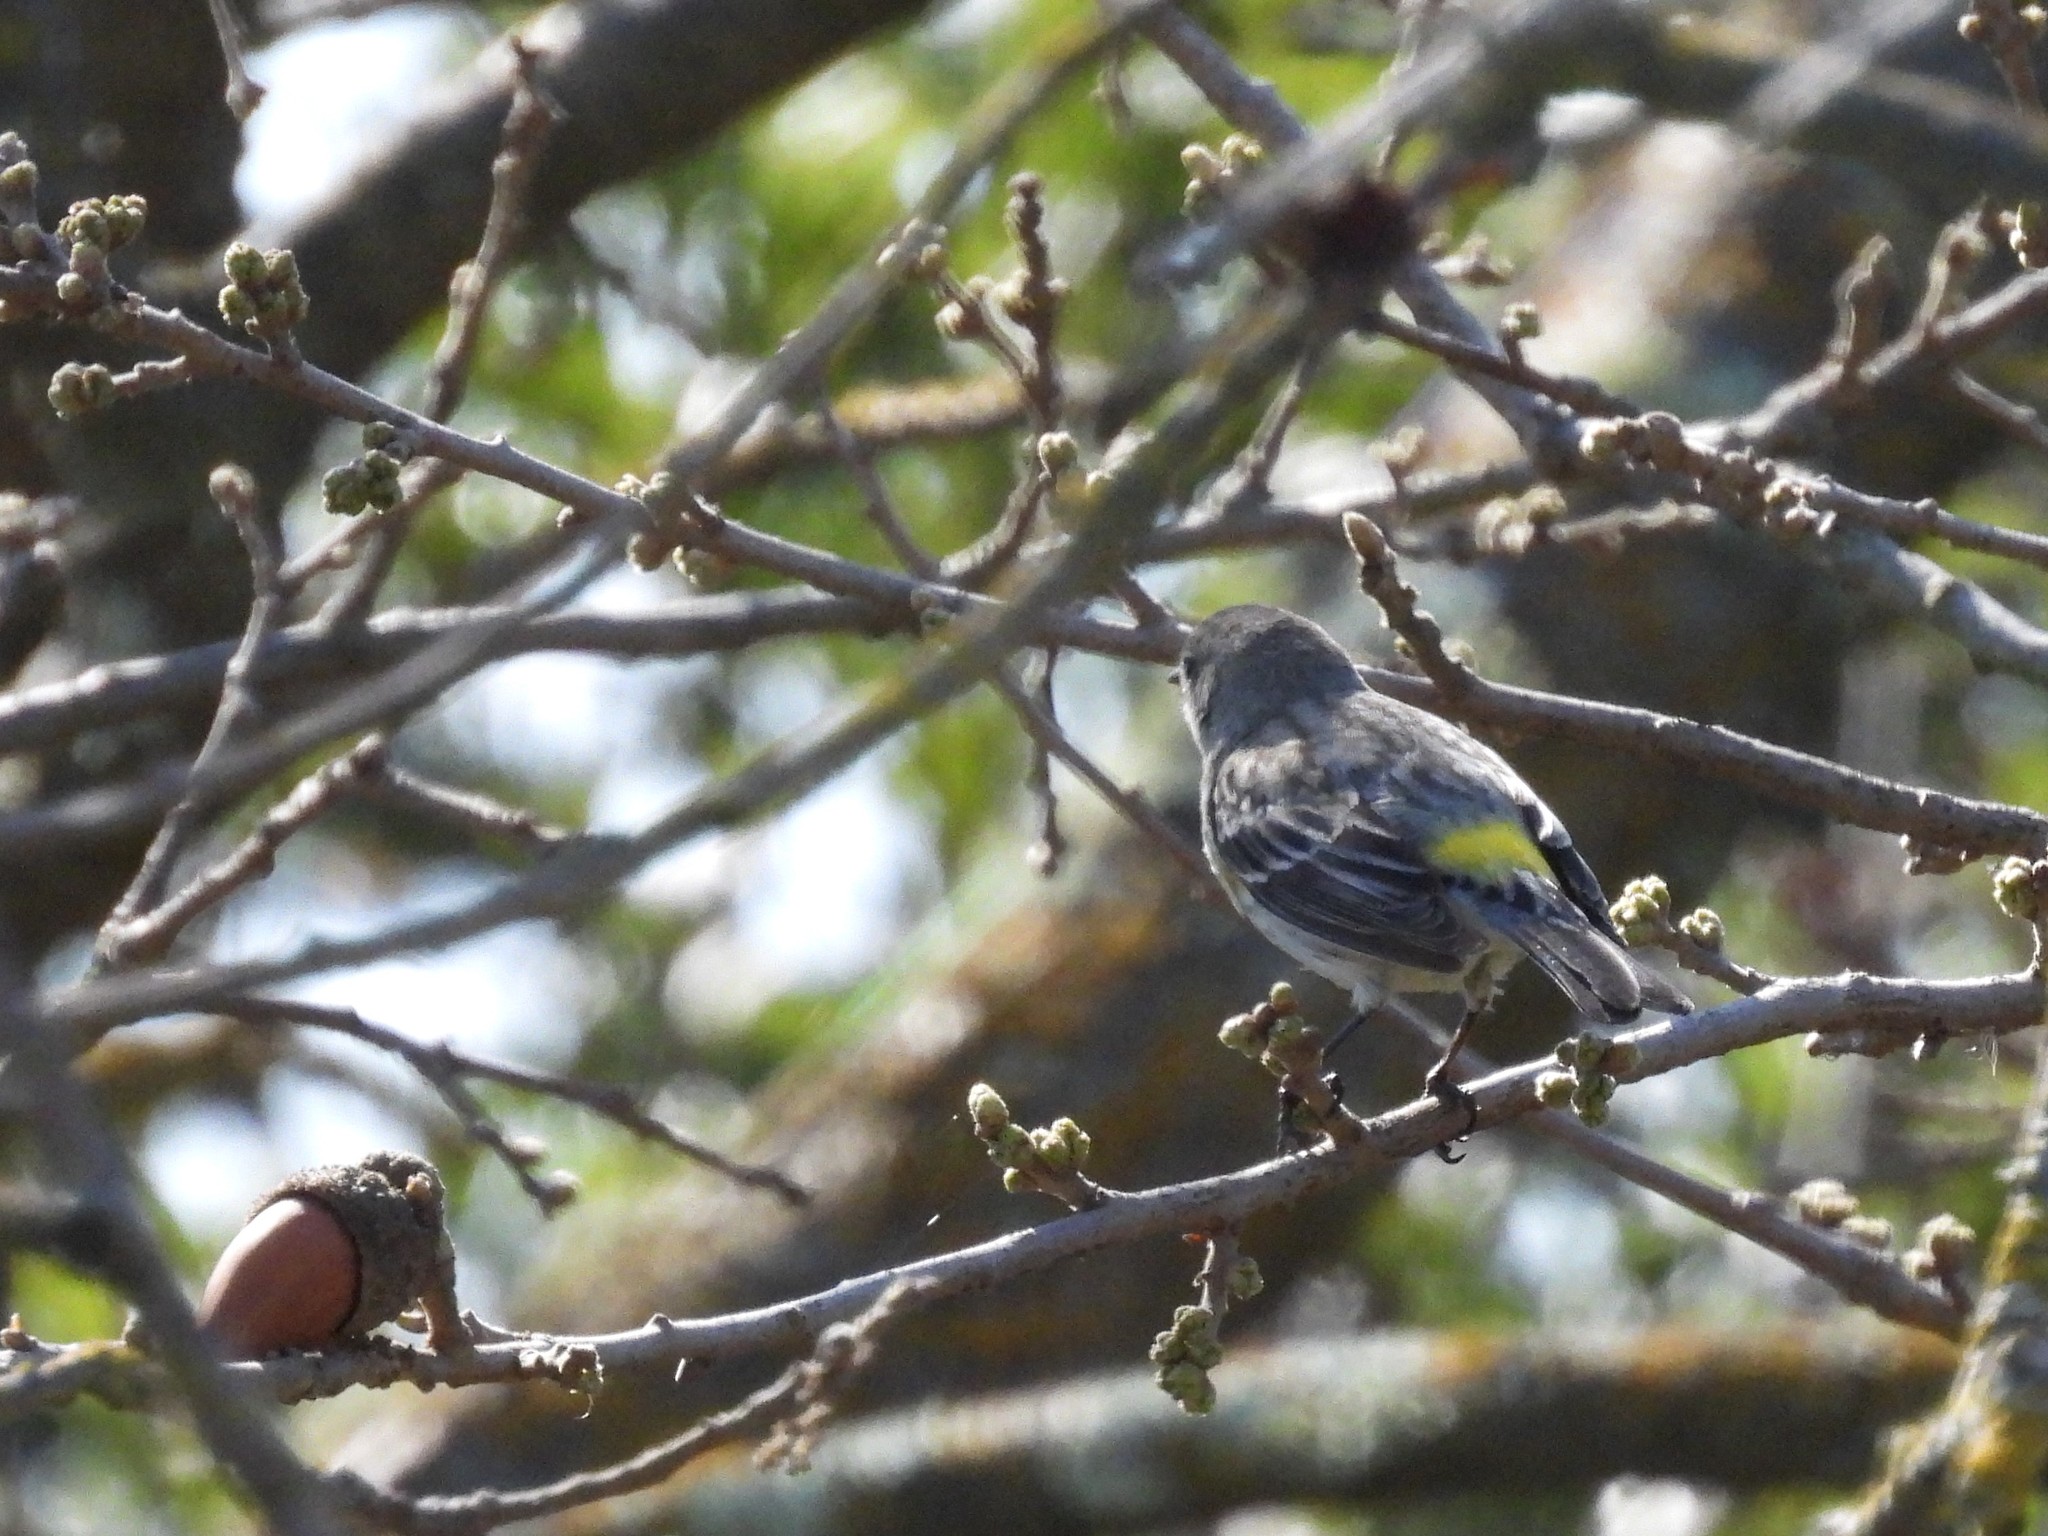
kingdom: Animalia
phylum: Chordata
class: Aves
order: Passeriformes
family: Parulidae
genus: Setophaga
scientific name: Setophaga coronata
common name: Myrtle warbler
